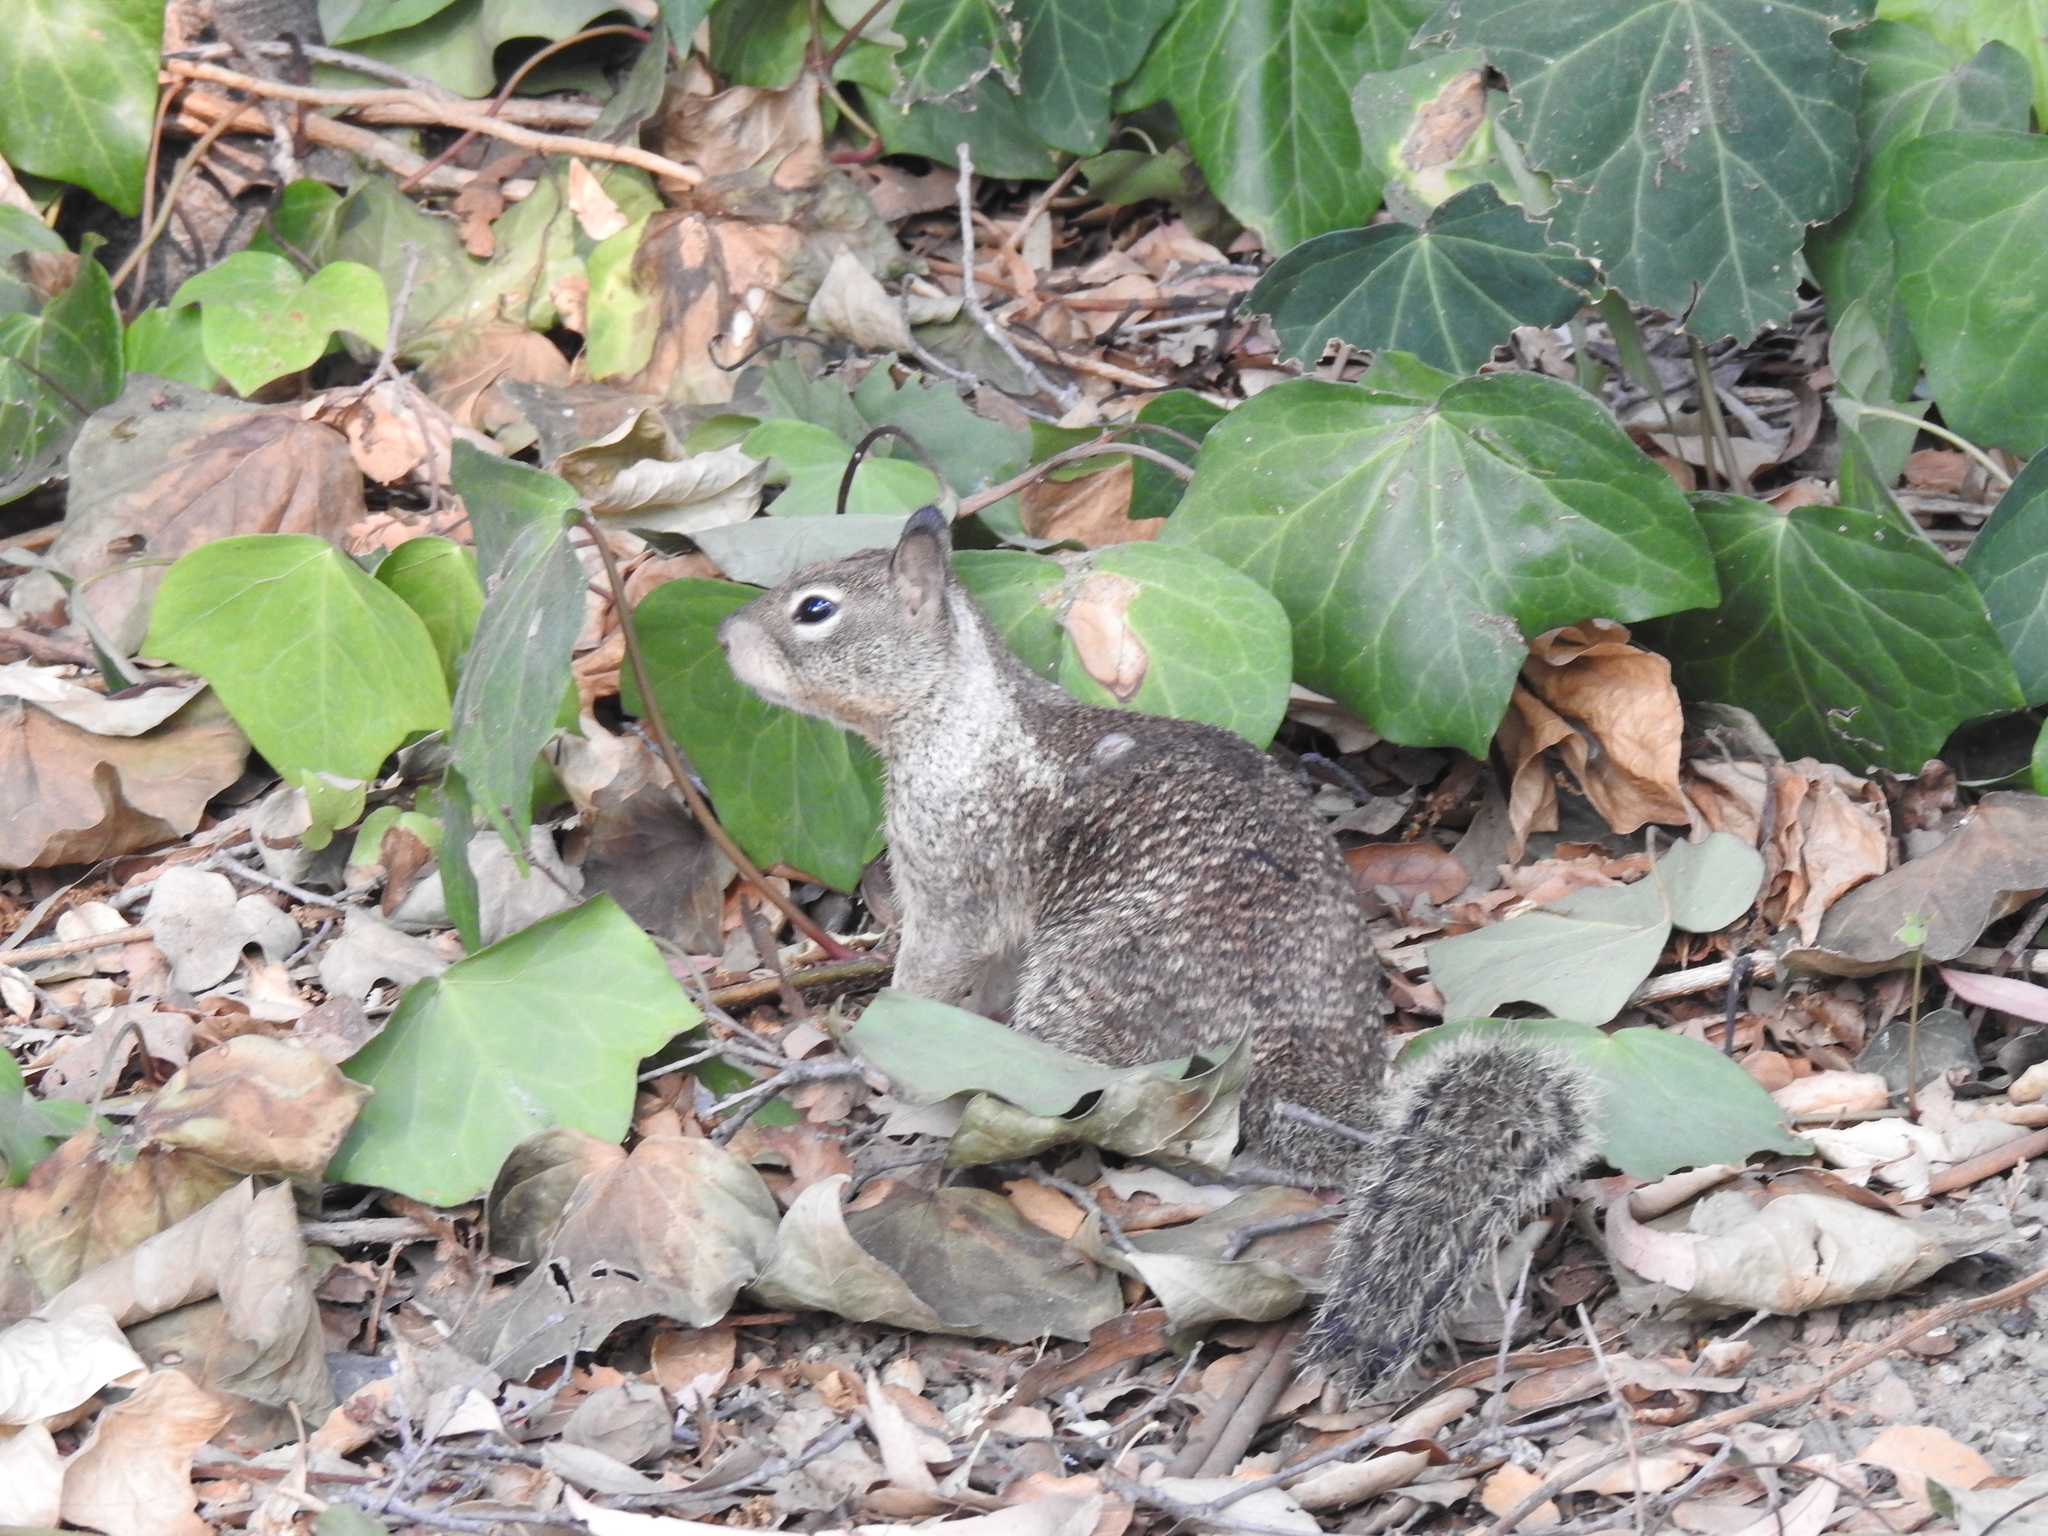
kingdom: Animalia
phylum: Chordata
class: Mammalia
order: Rodentia
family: Sciuridae
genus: Otospermophilus
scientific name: Otospermophilus beecheyi
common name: California ground squirrel
